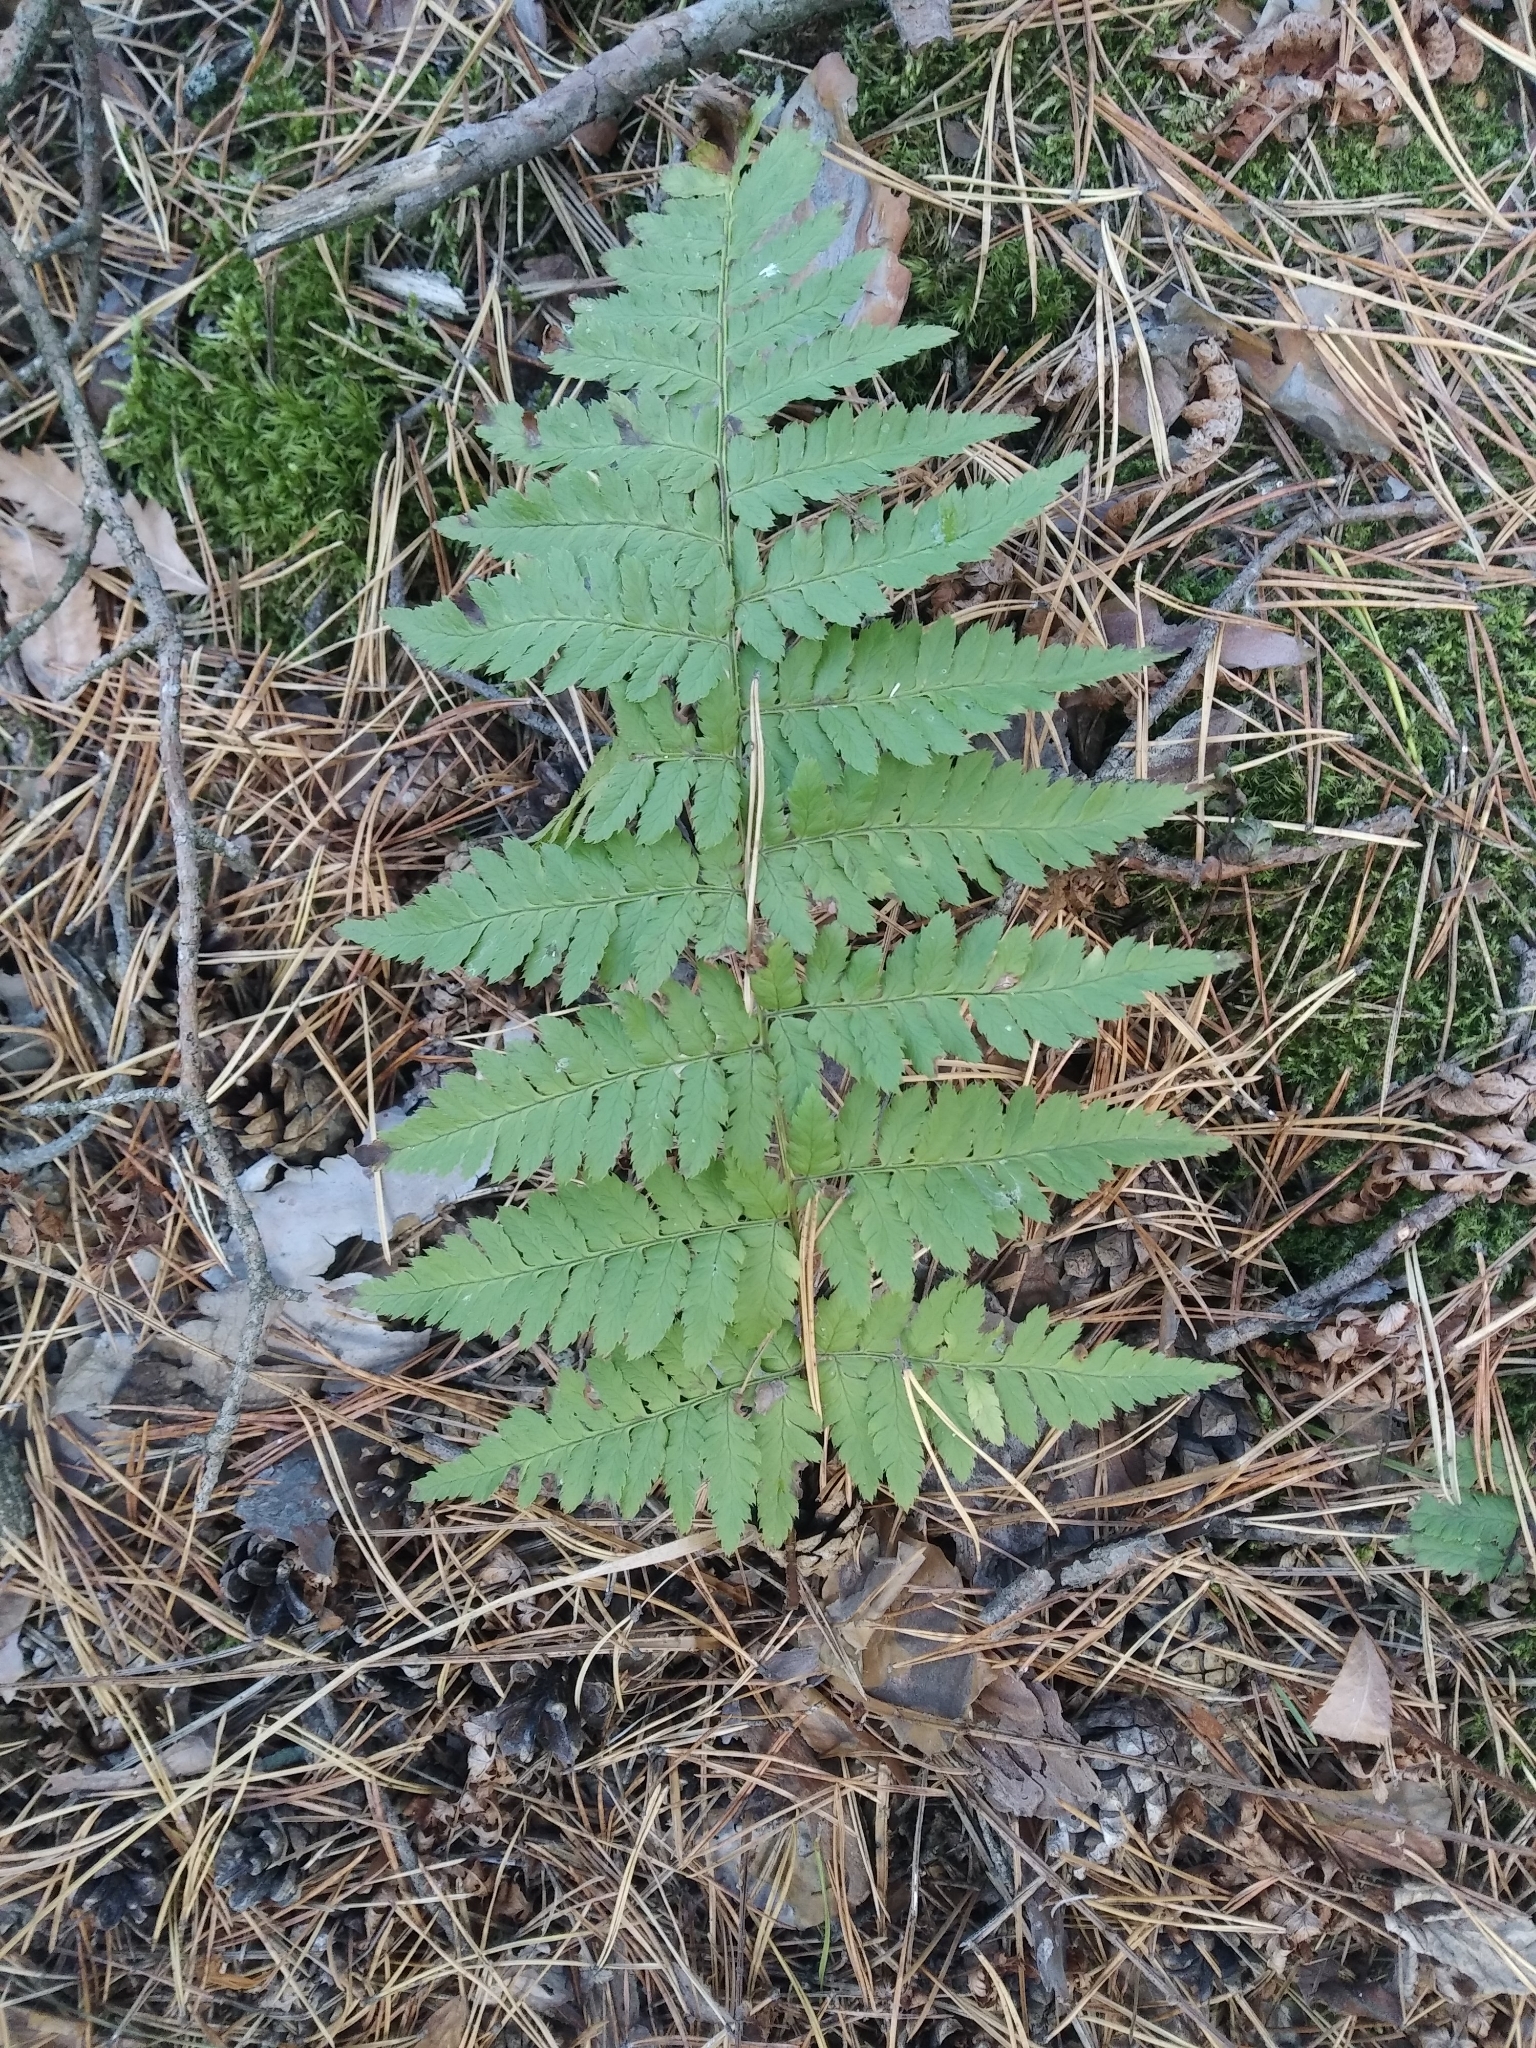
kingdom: Plantae
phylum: Tracheophyta
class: Polypodiopsida
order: Polypodiales
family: Dryopteridaceae
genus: Dryopteris
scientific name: Dryopteris carthusiana
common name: Narrow buckler-fern
